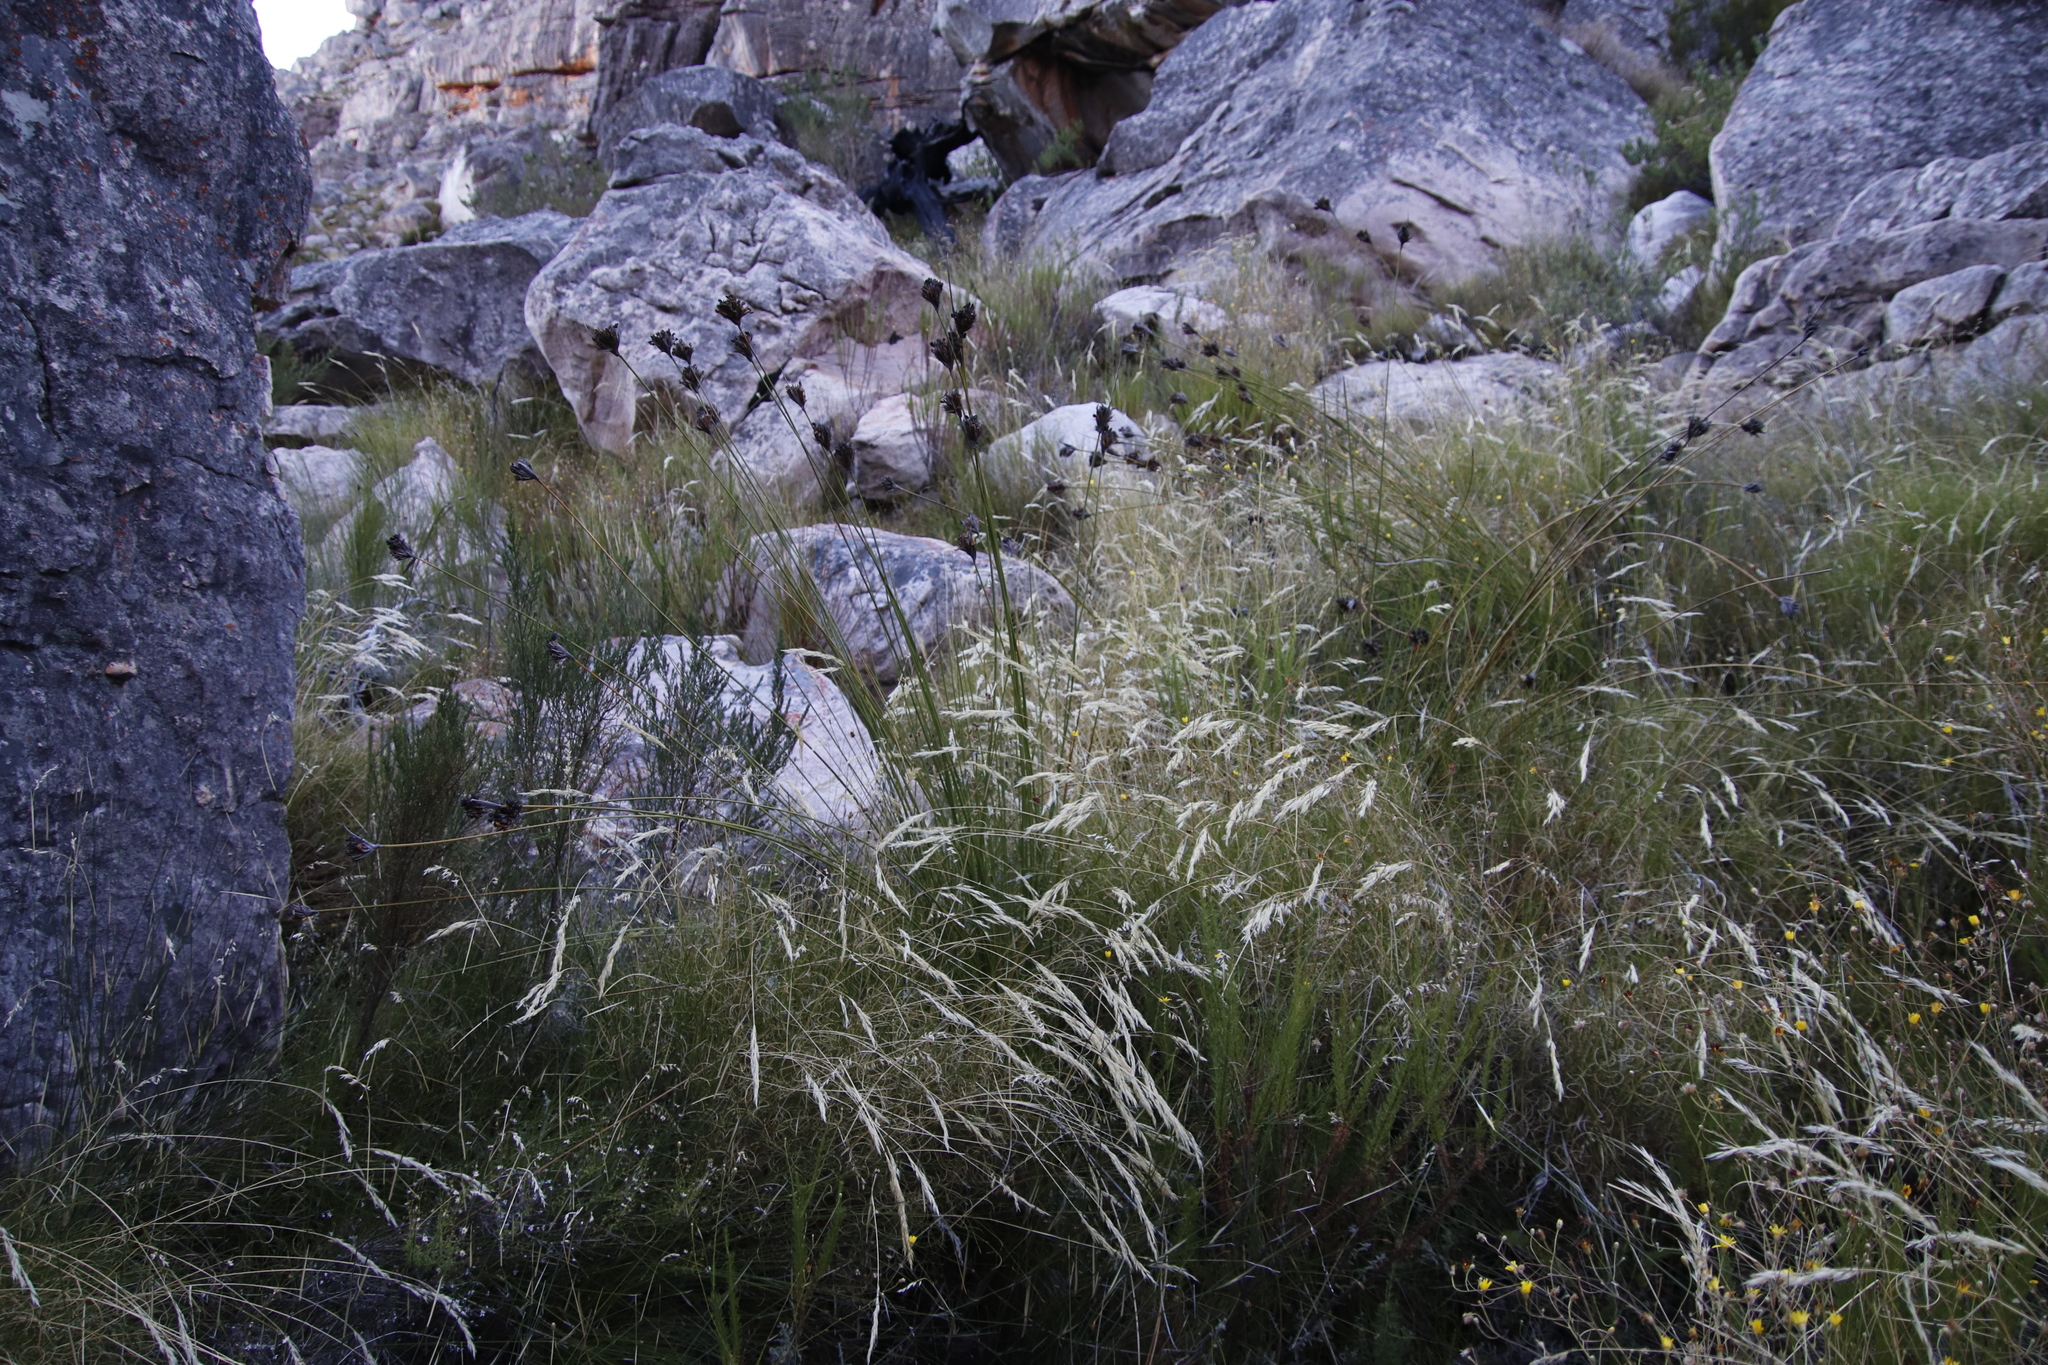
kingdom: Plantae
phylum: Tracheophyta
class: Liliopsida
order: Asparagales
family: Iridaceae
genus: Bobartia
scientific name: Bobartia rufa
